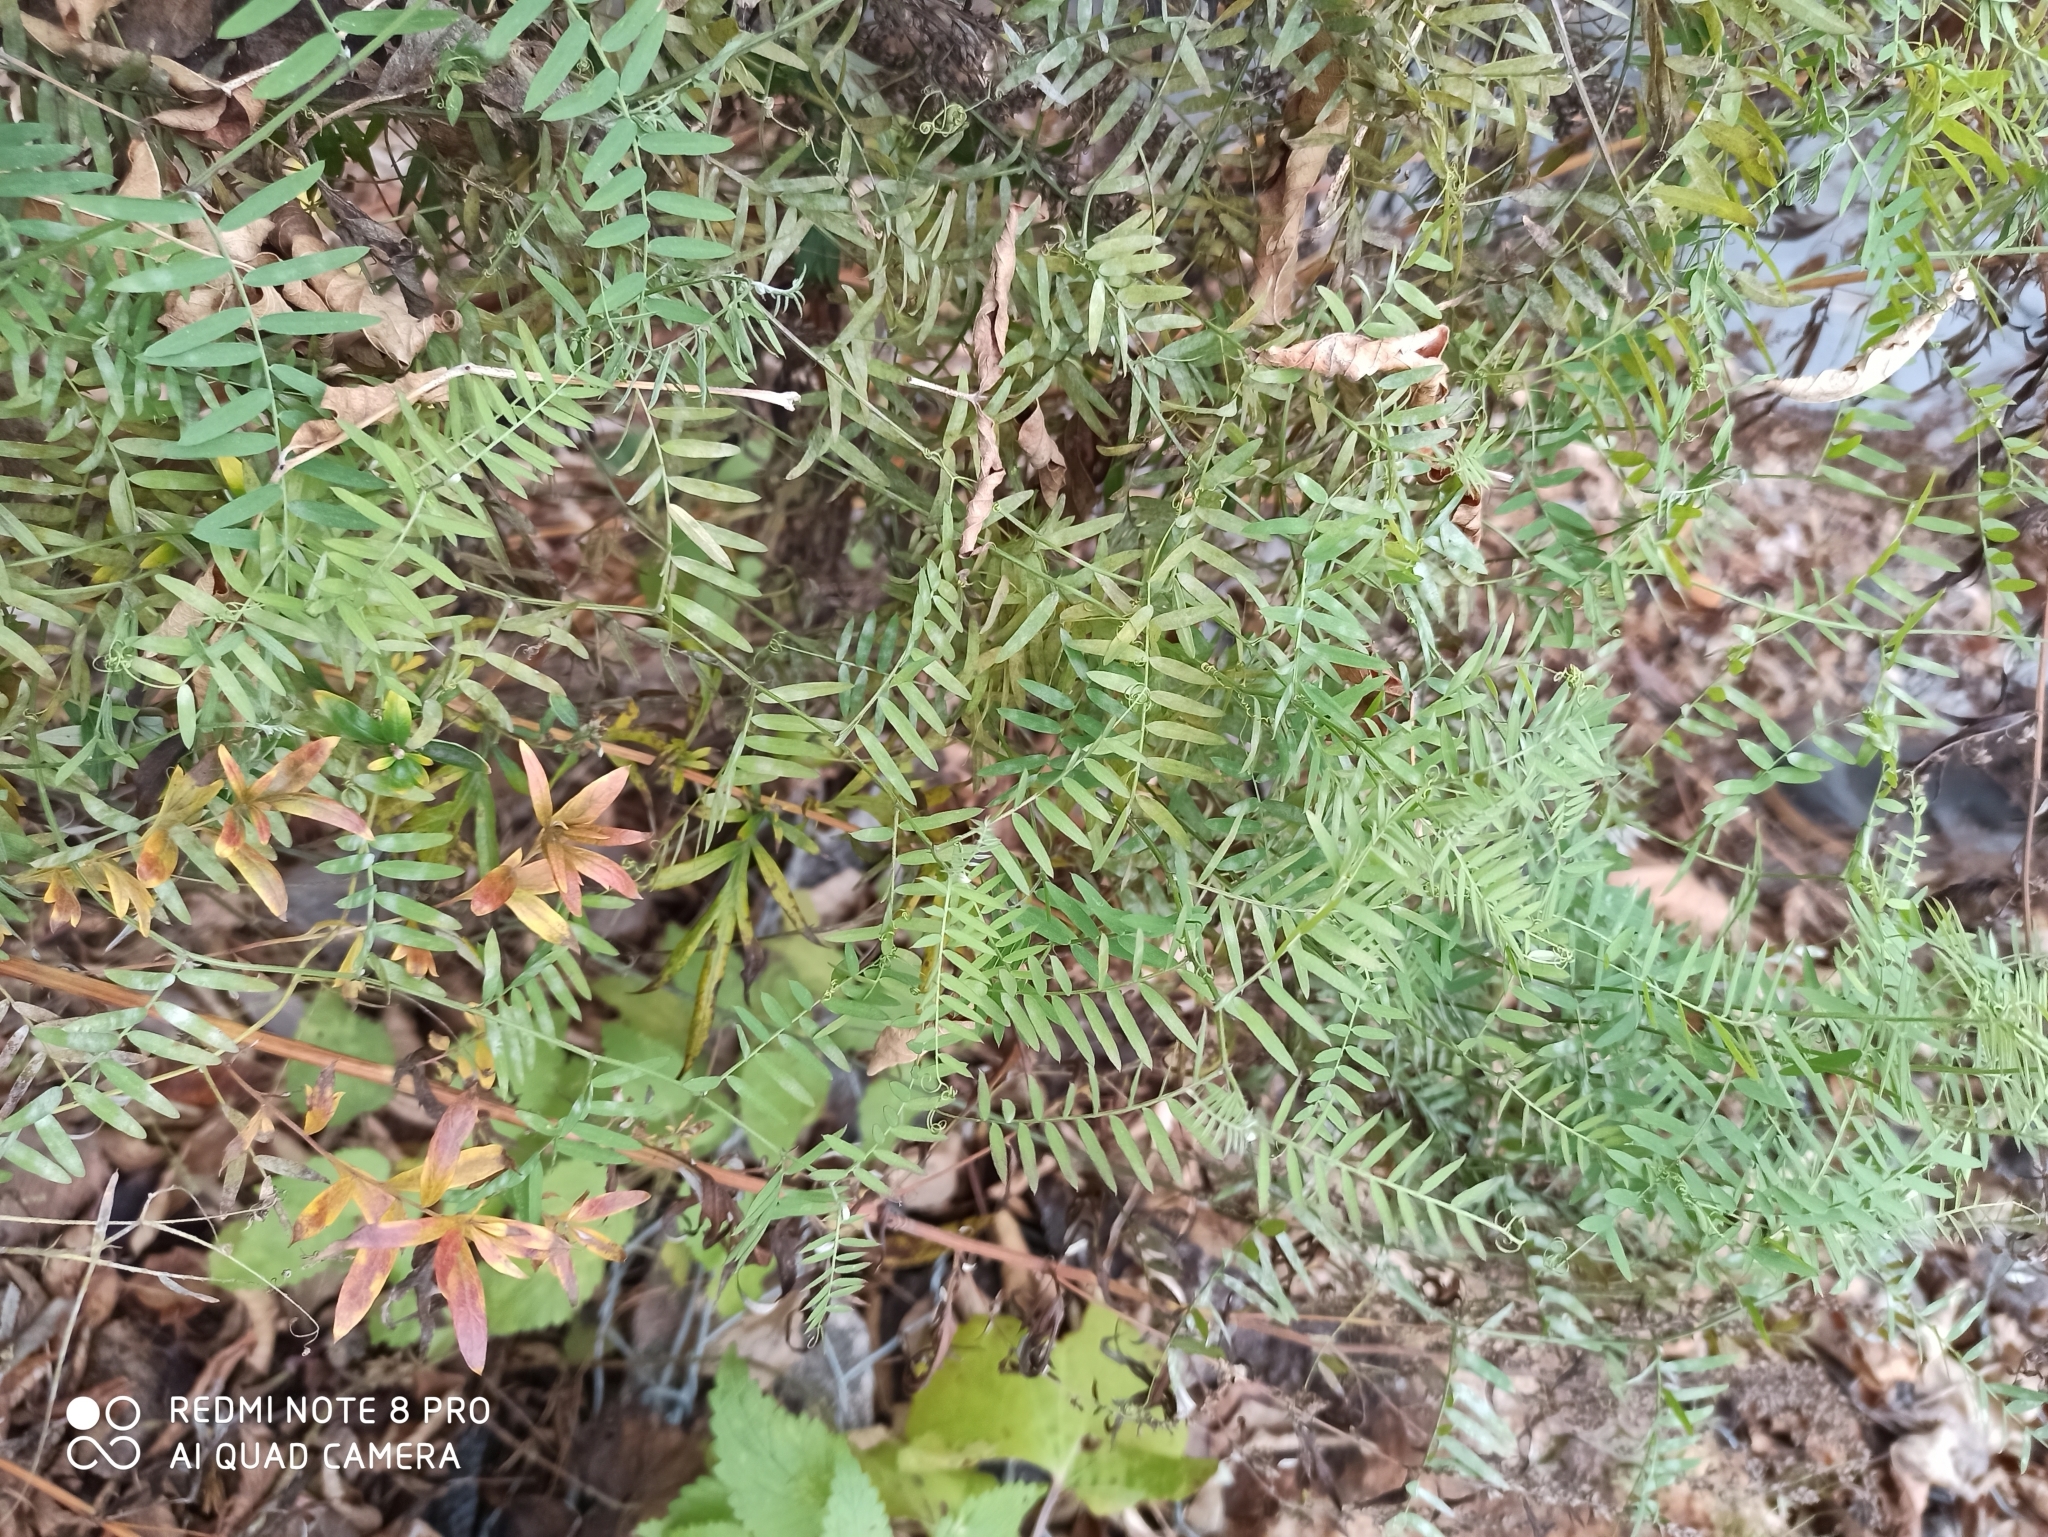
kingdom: Plantae
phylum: Tracheophyta
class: Magnoliopsida
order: Fabales
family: Fabaceae
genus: Vicia
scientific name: Vicia cracca
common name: Bird vetch
